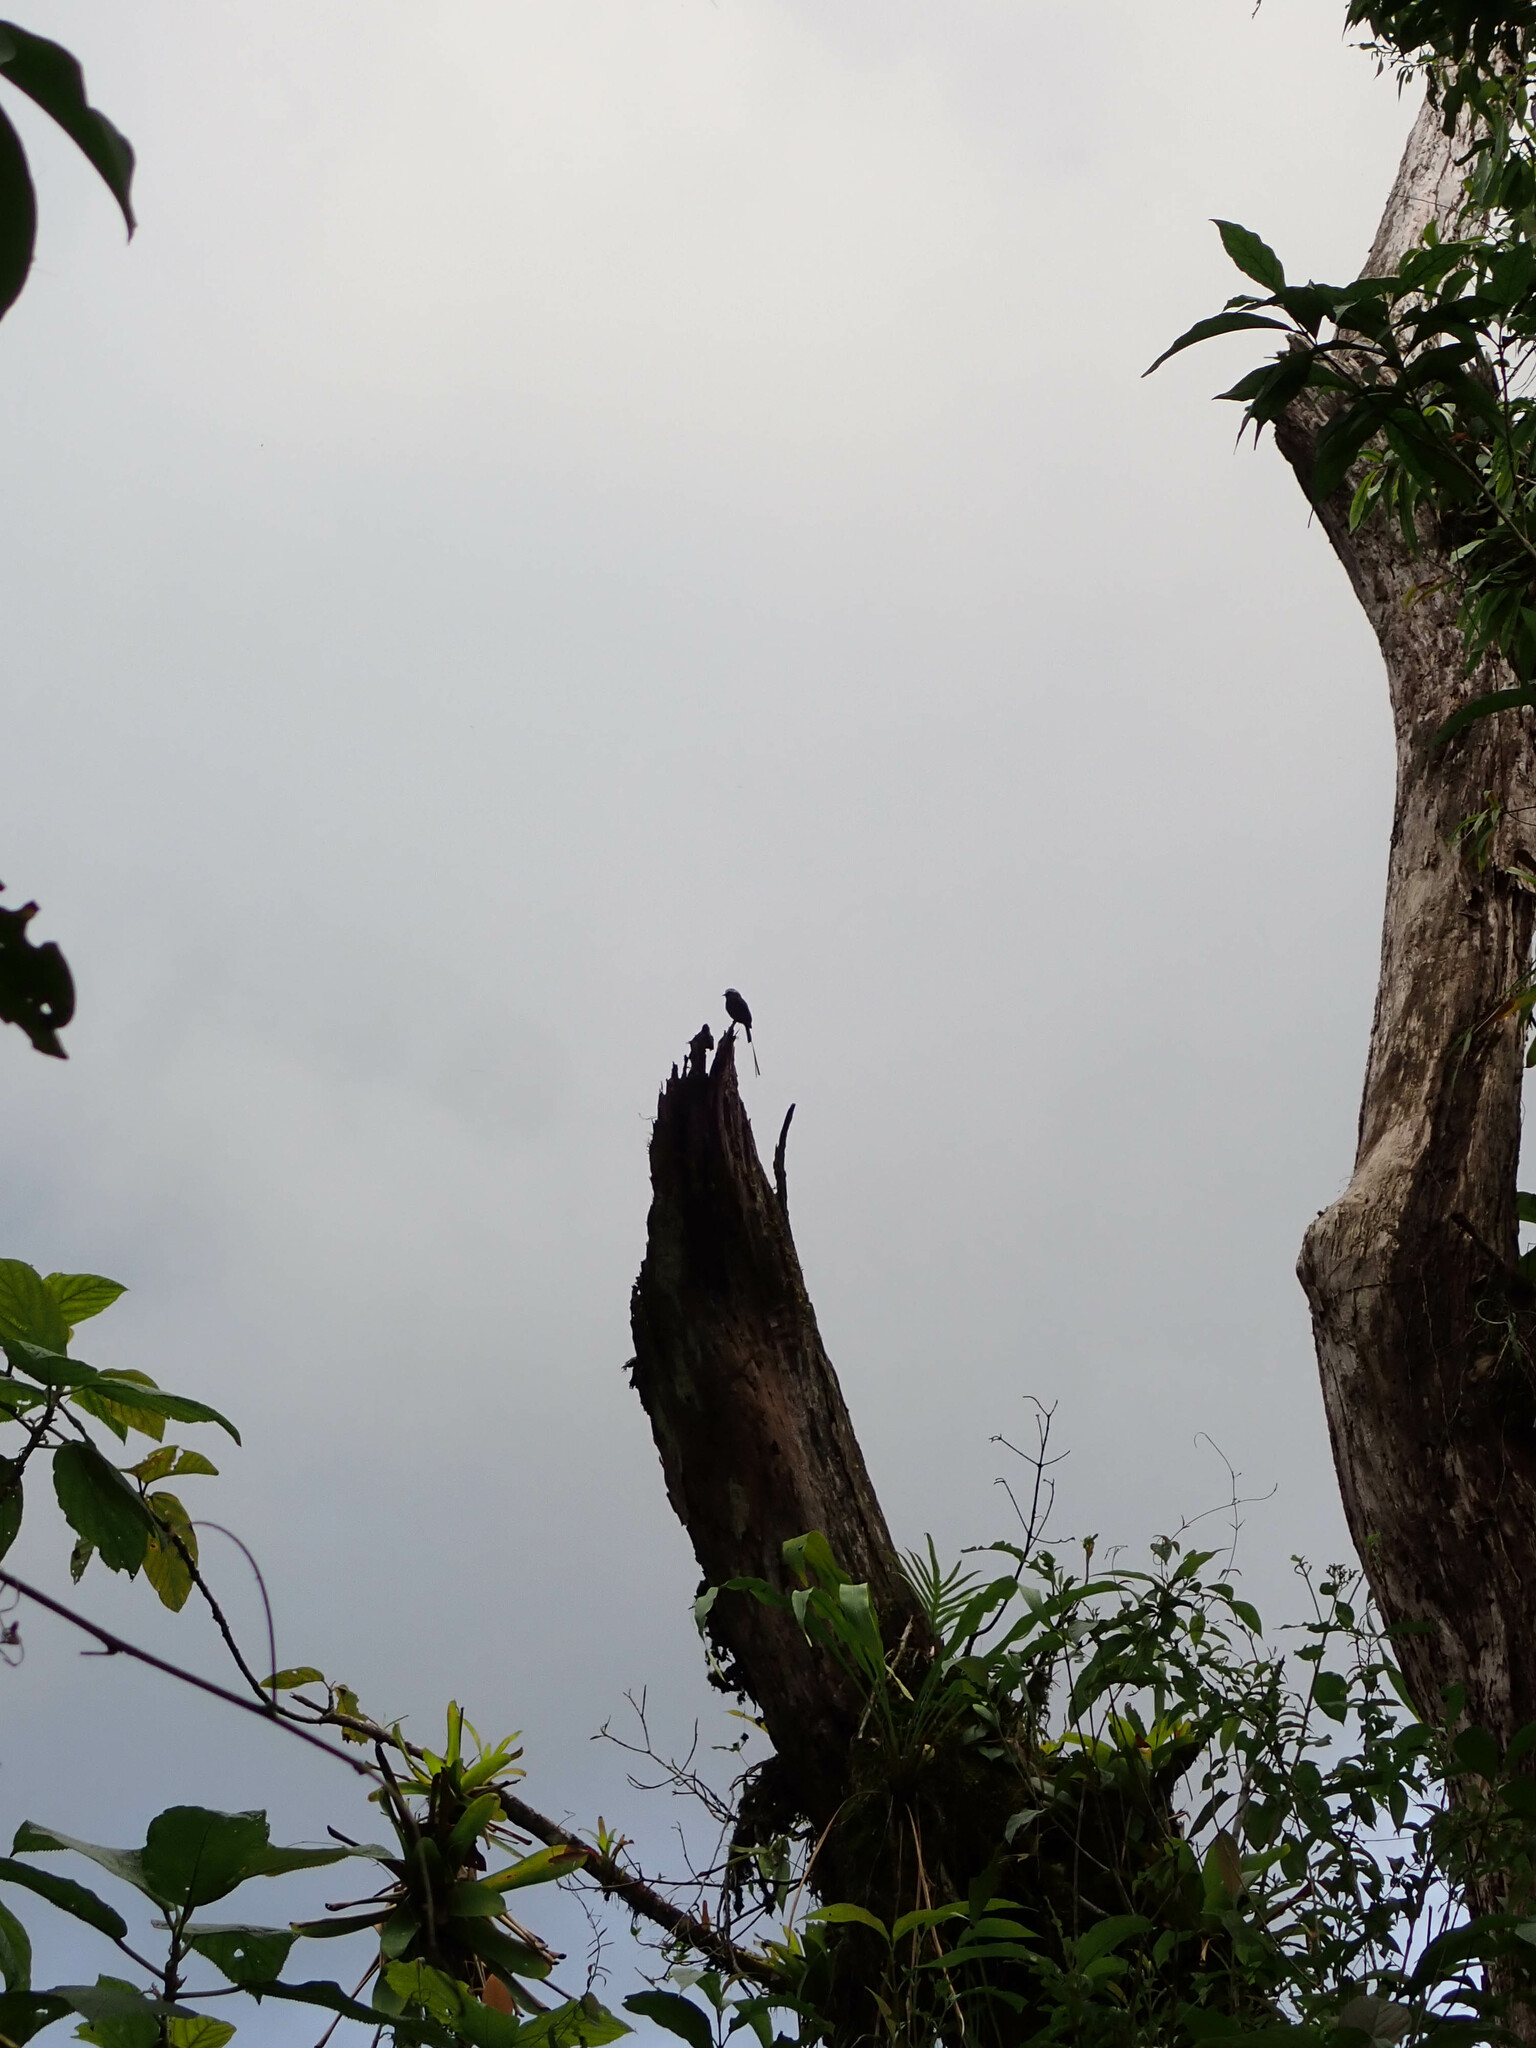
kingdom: Animalia
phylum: Chordata
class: Aves
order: Passeriformes
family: Tyrannidae
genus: Colonia
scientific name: Colonia colonus
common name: Long-tailed tyrant
